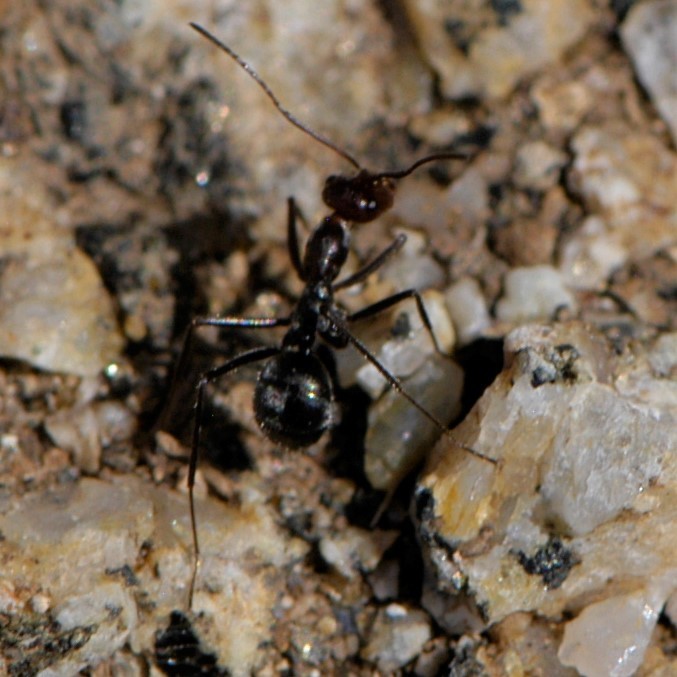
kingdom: Animalia
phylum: Arthropoda
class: Insecta
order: Hymenoptera
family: Formicidae
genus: Endiodioctes
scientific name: Endiodioctes
